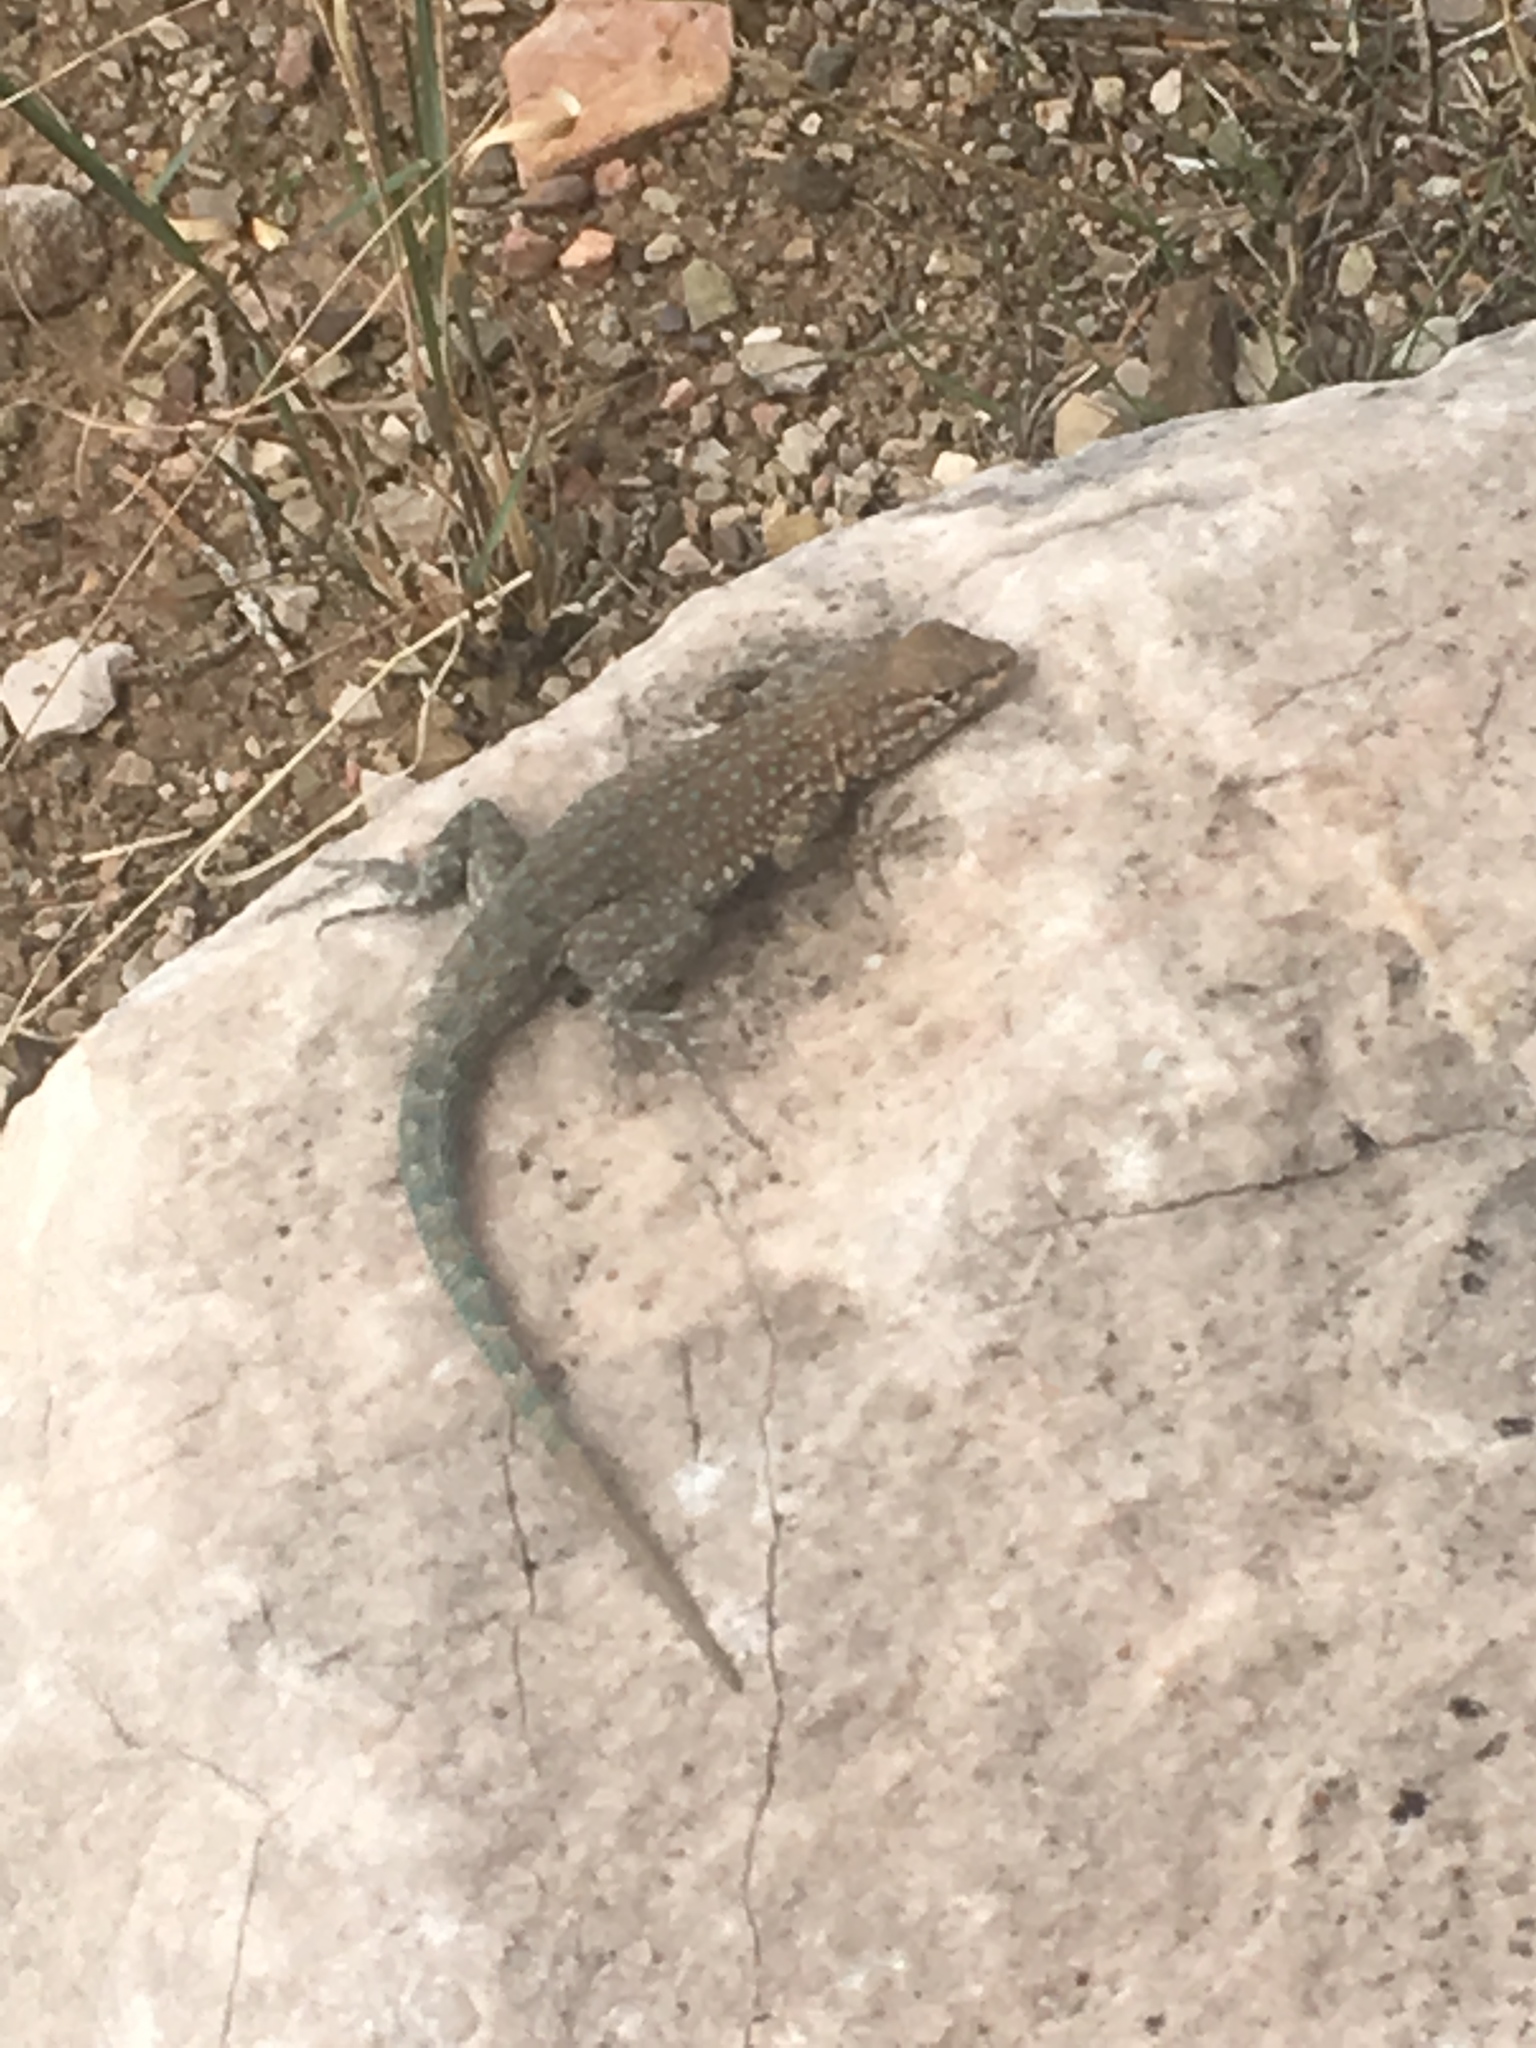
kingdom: Animalia
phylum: Chordata
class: Squamata
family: Phrynosomatidae
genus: Uta
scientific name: Uta stansburiana
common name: Side-blotched lizard
